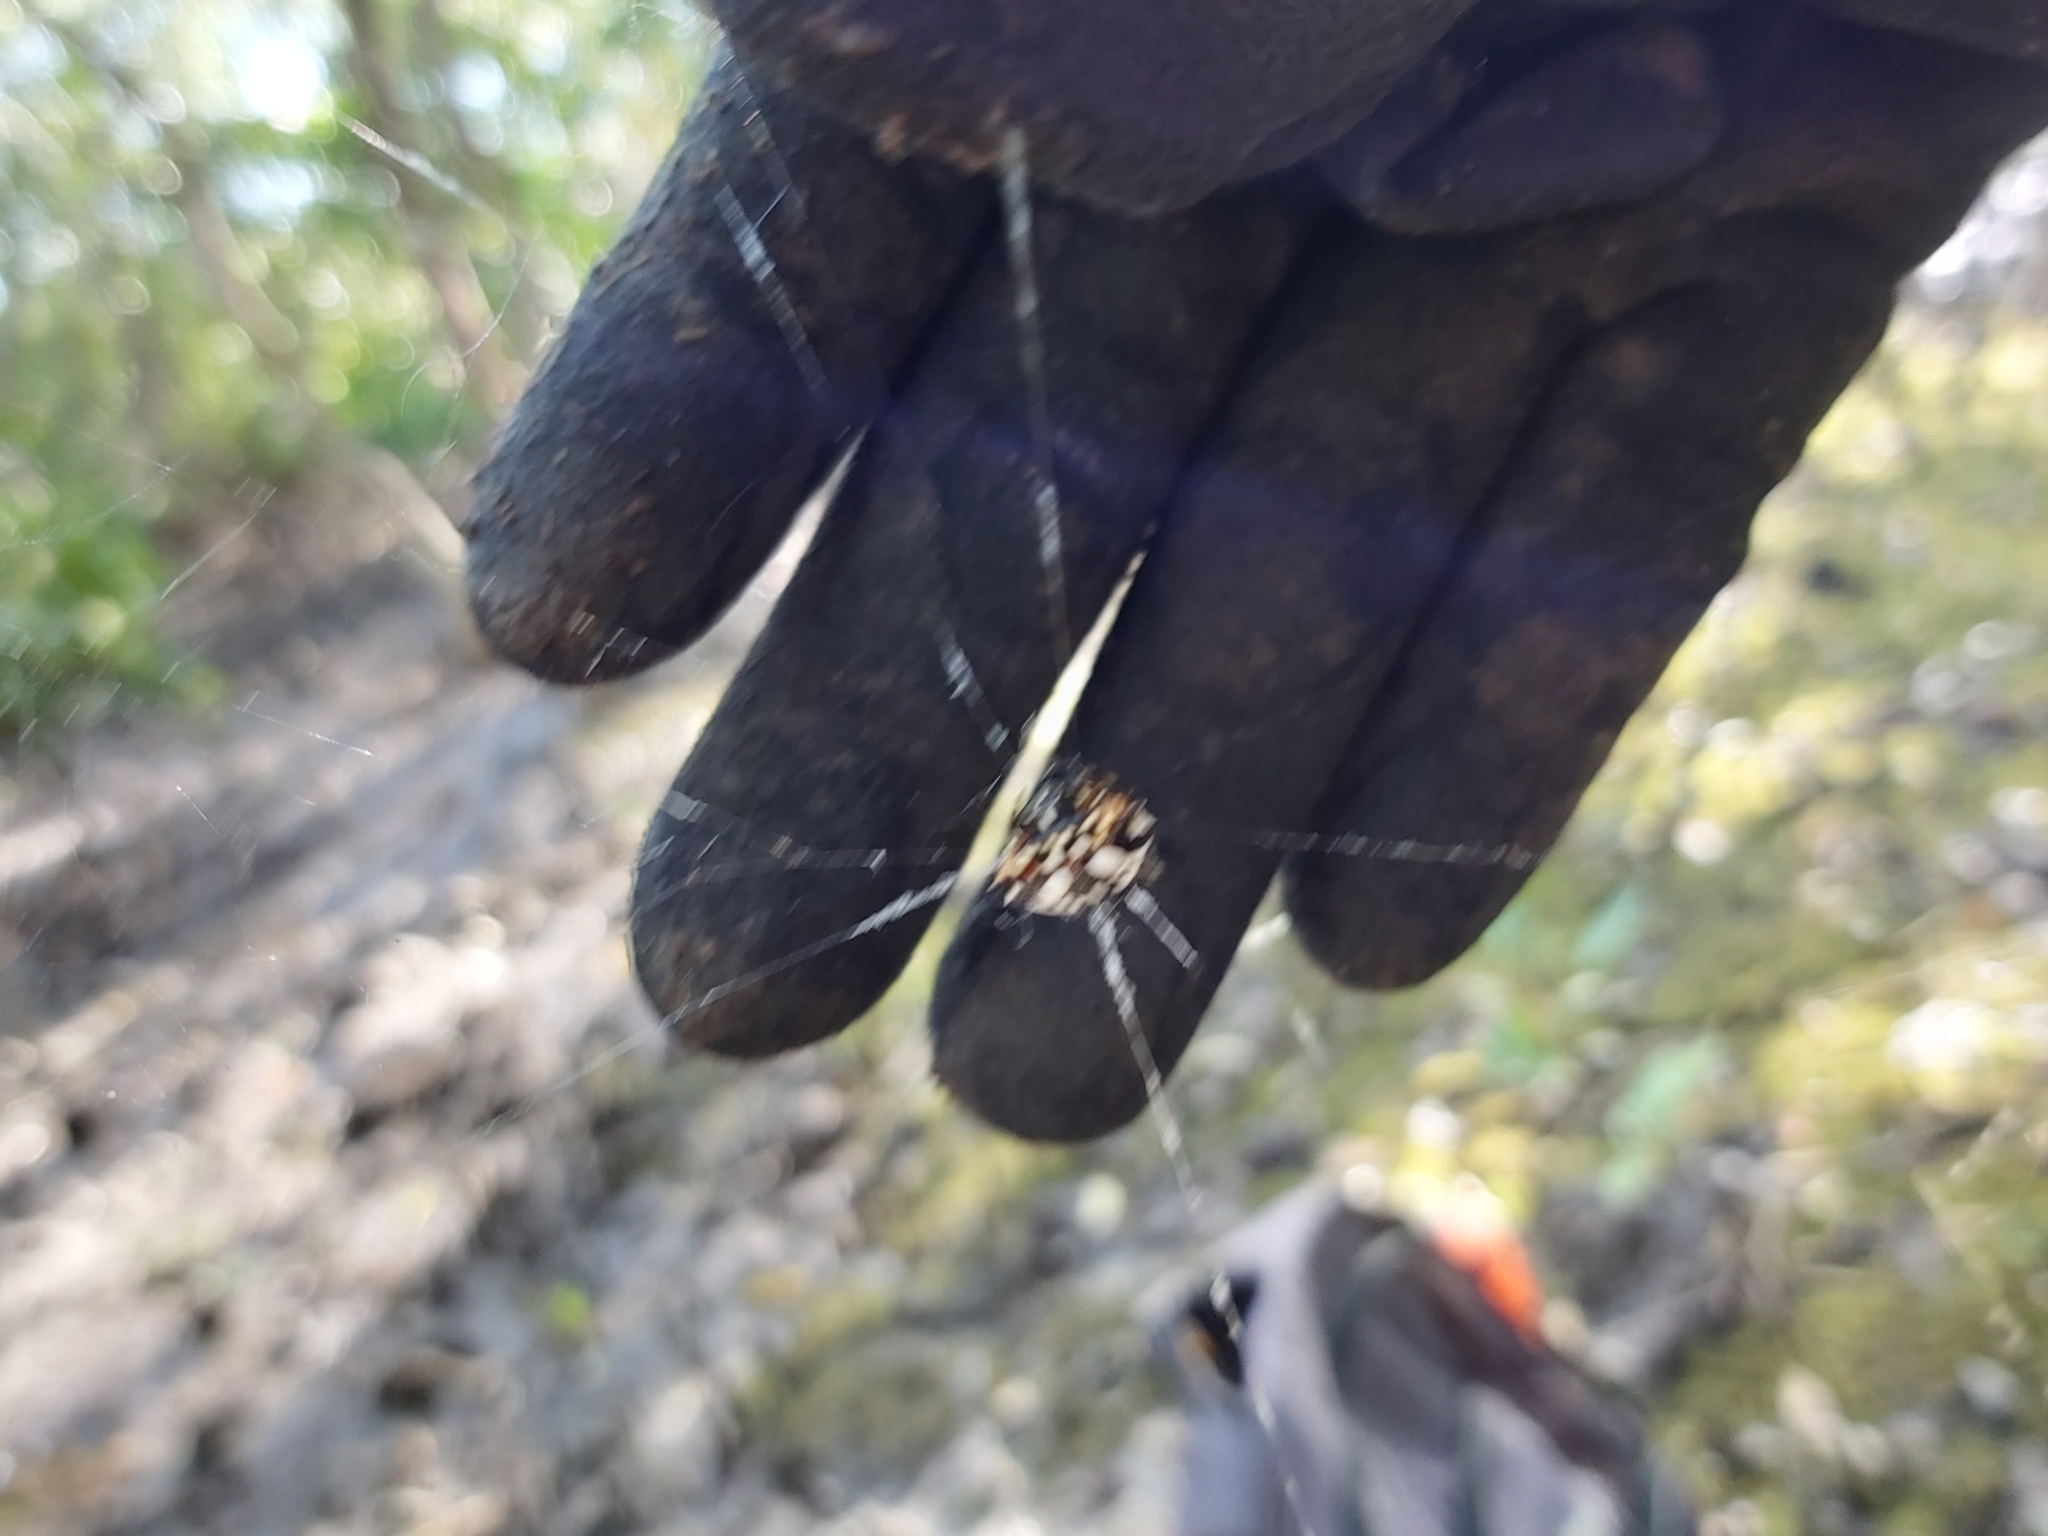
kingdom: Animalia
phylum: Arthropoda
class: Arachnida
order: Araneae
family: Araneidae
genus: Gasteracantha
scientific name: Gasteracantha sacerdotalis
